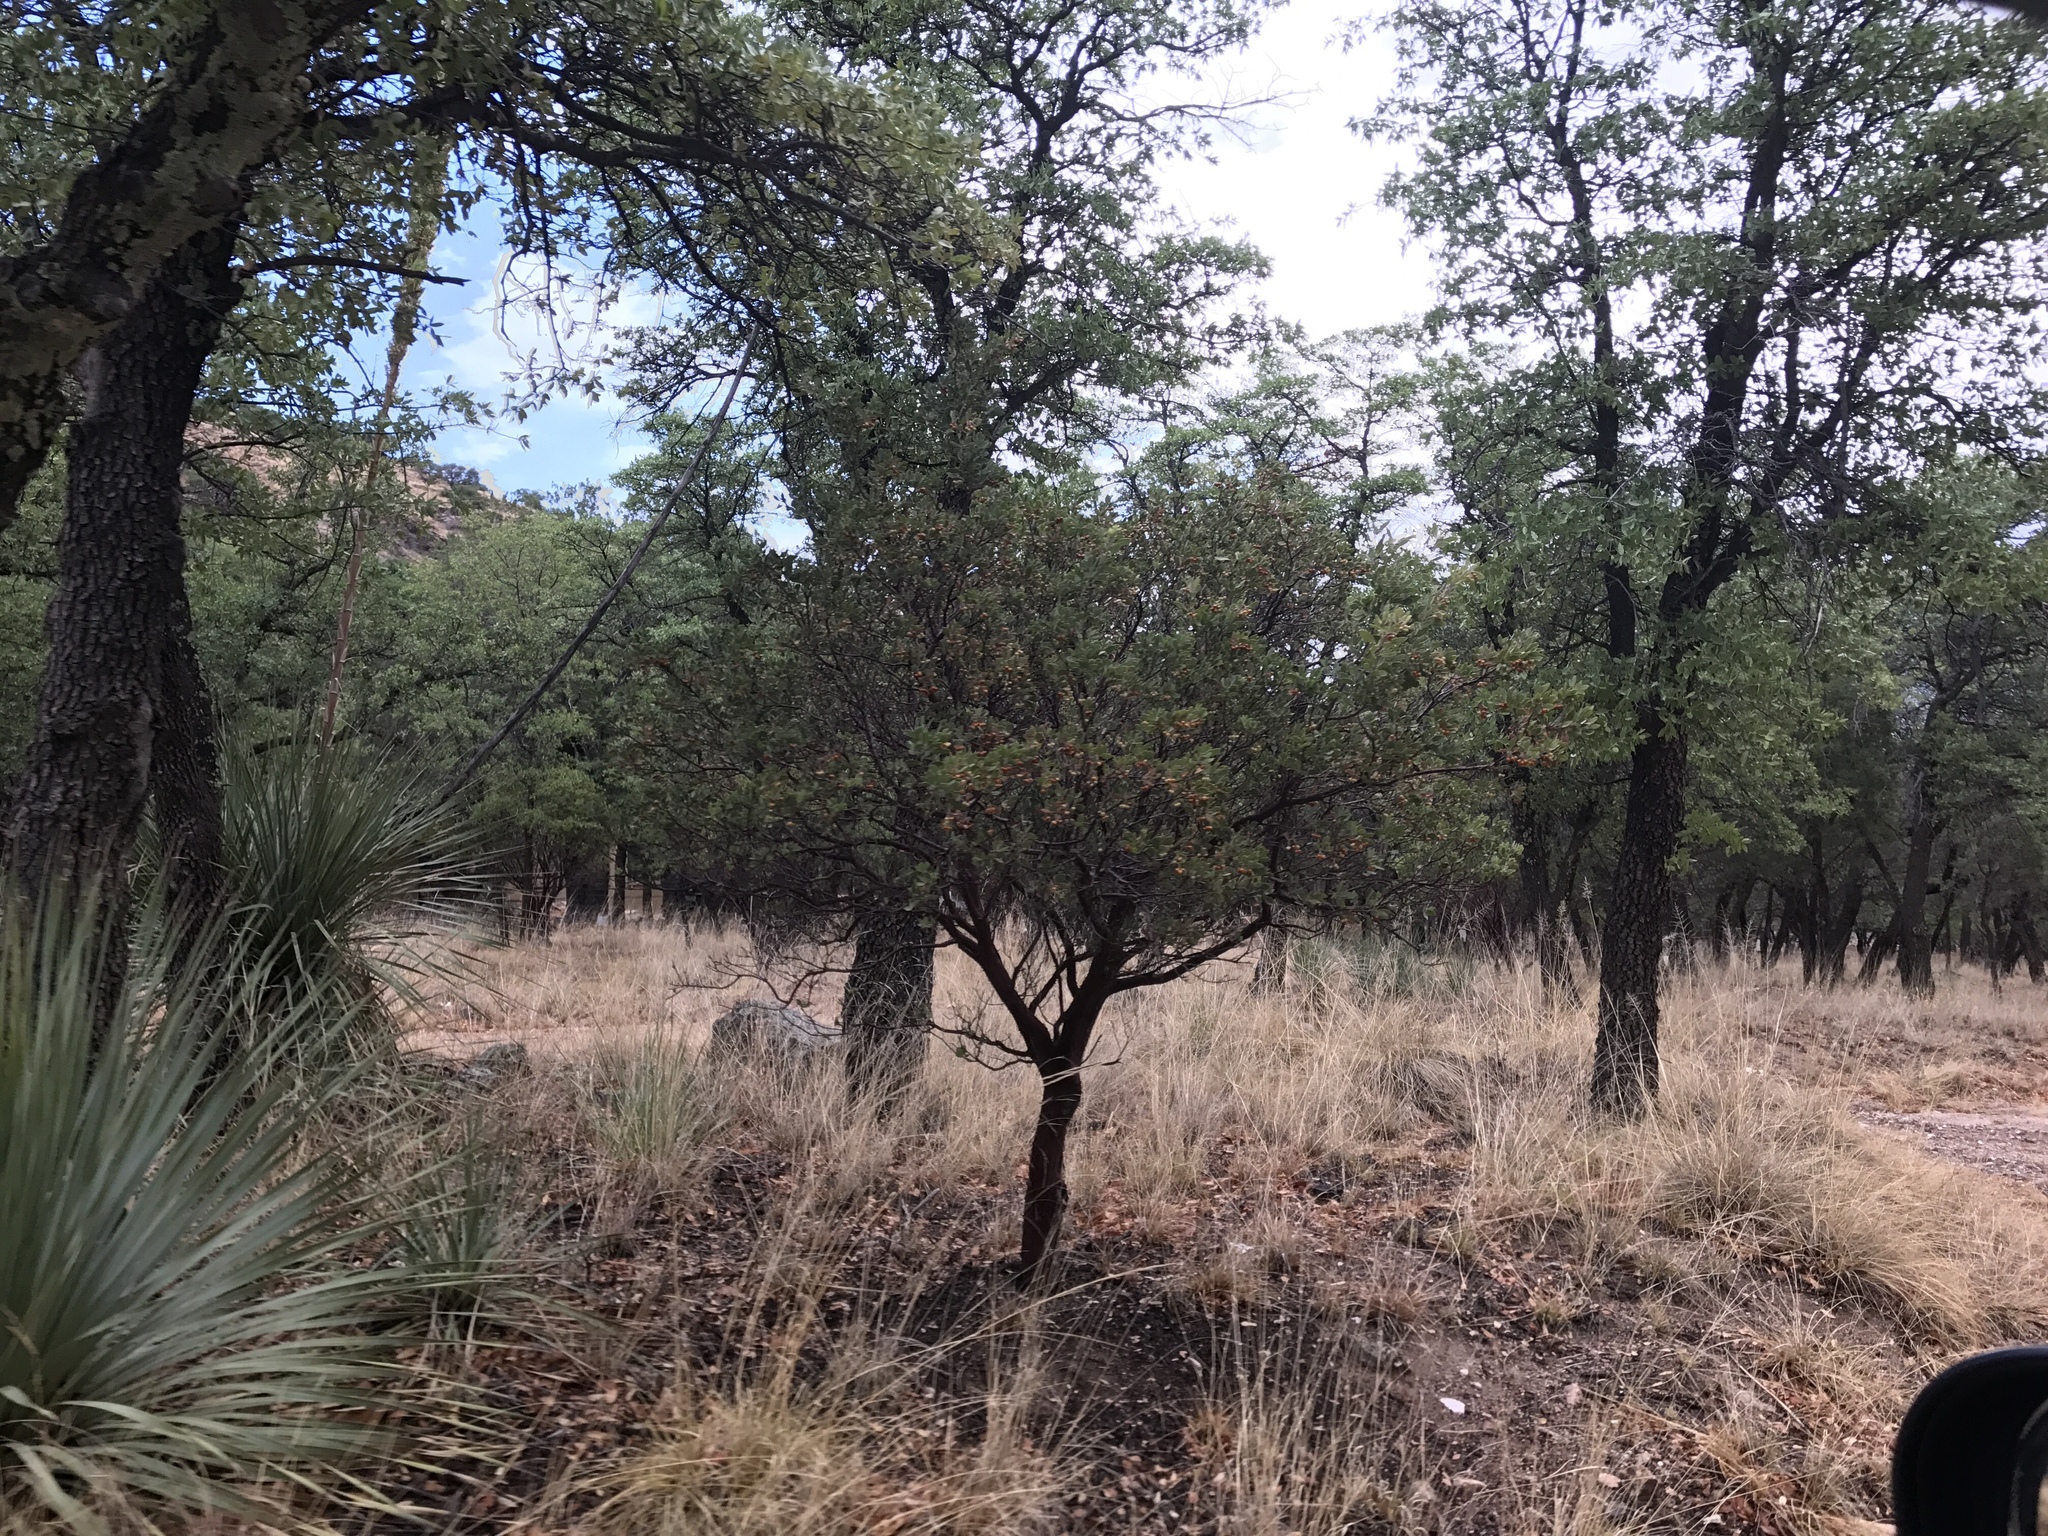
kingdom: Plantae
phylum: Tracheophyta
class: Magnoliopsida
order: Ericales
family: Ericaceae
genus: Arctostaphylos
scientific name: Arctostaphylos pungens
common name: Mexican manzanita
